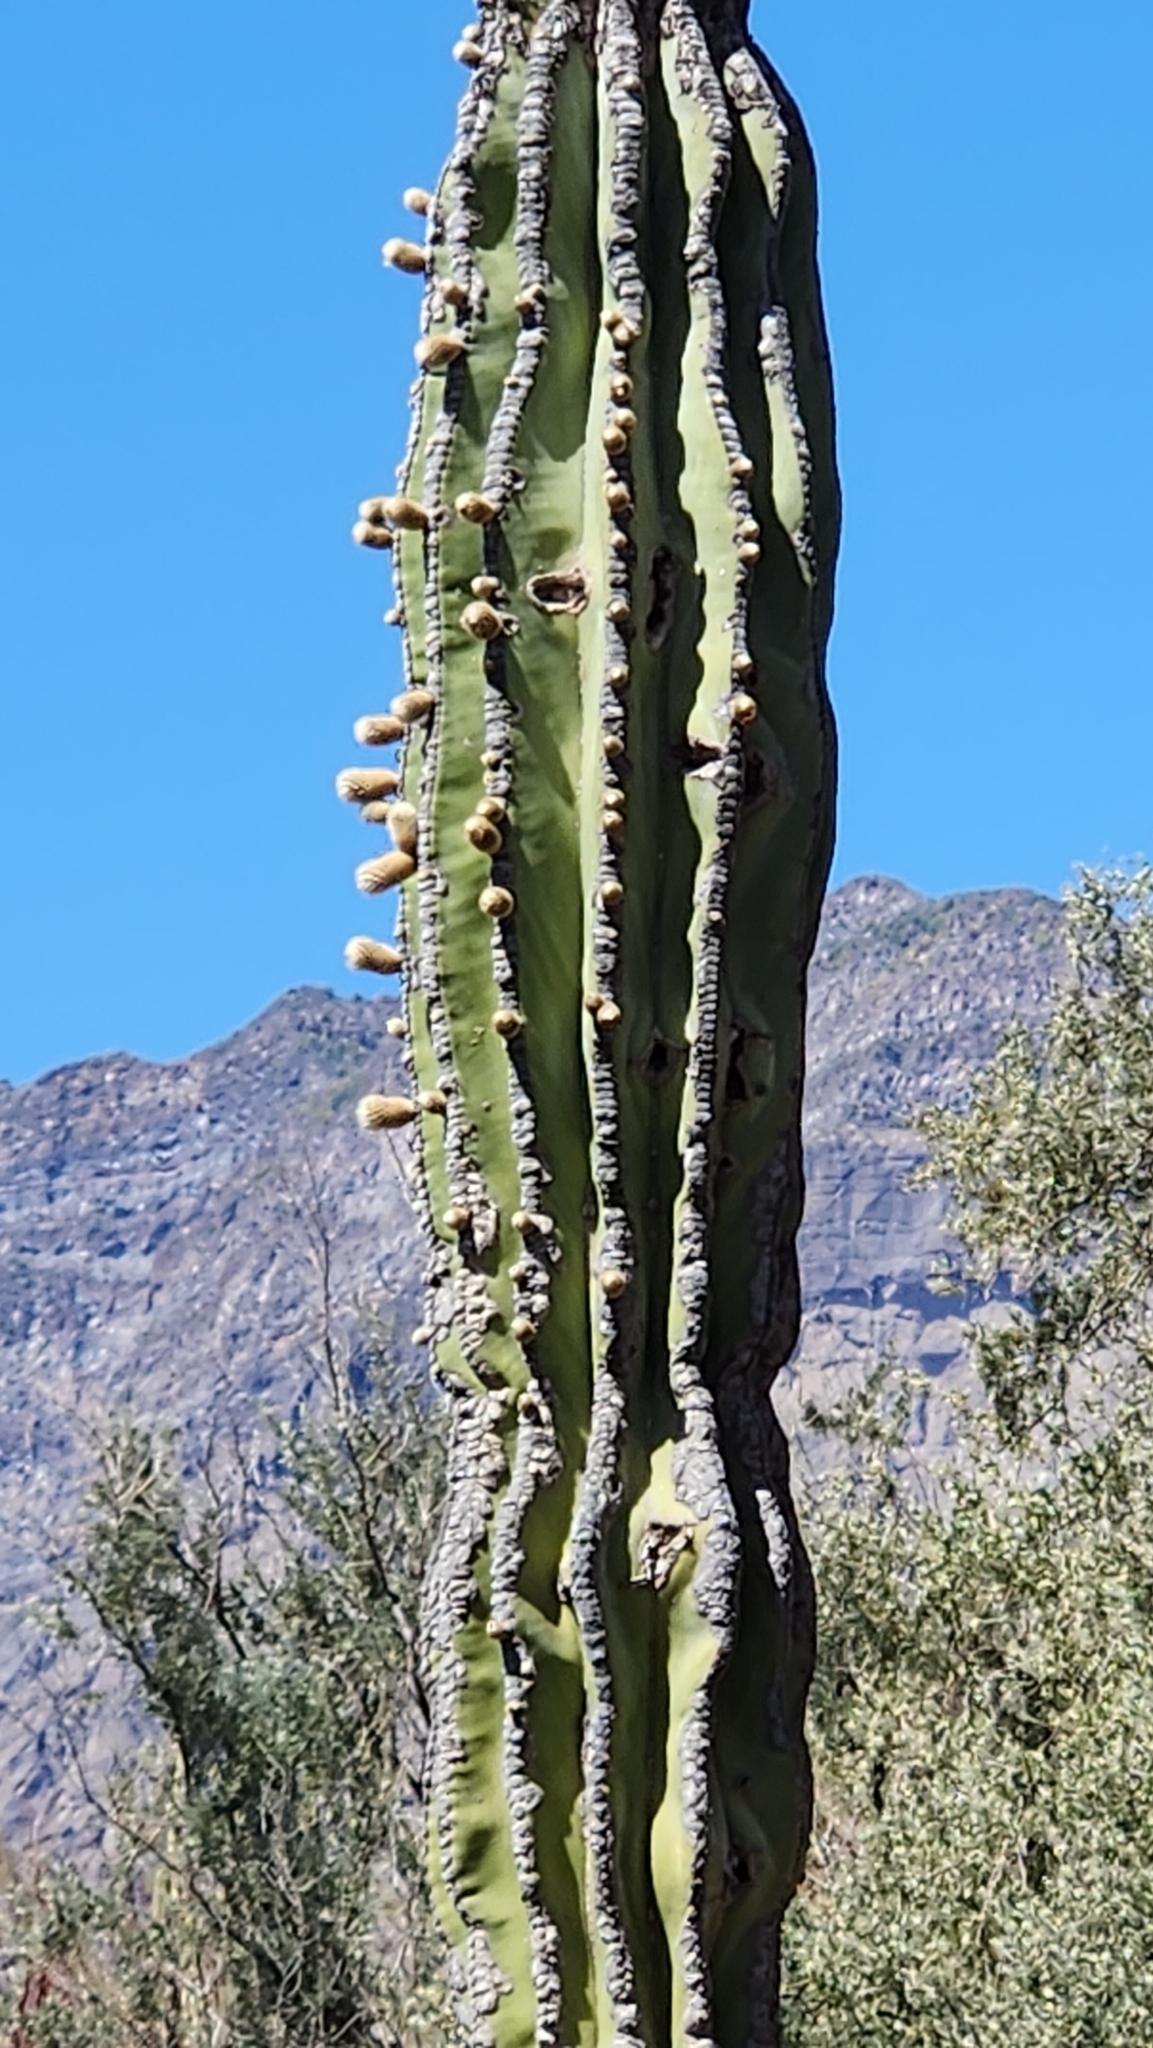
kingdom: Plantae
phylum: Tracheophyta
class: Magnoliopsida
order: Caryophyllales
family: Cactaceae
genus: Pachycereus
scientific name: Pachycereus pringlei
